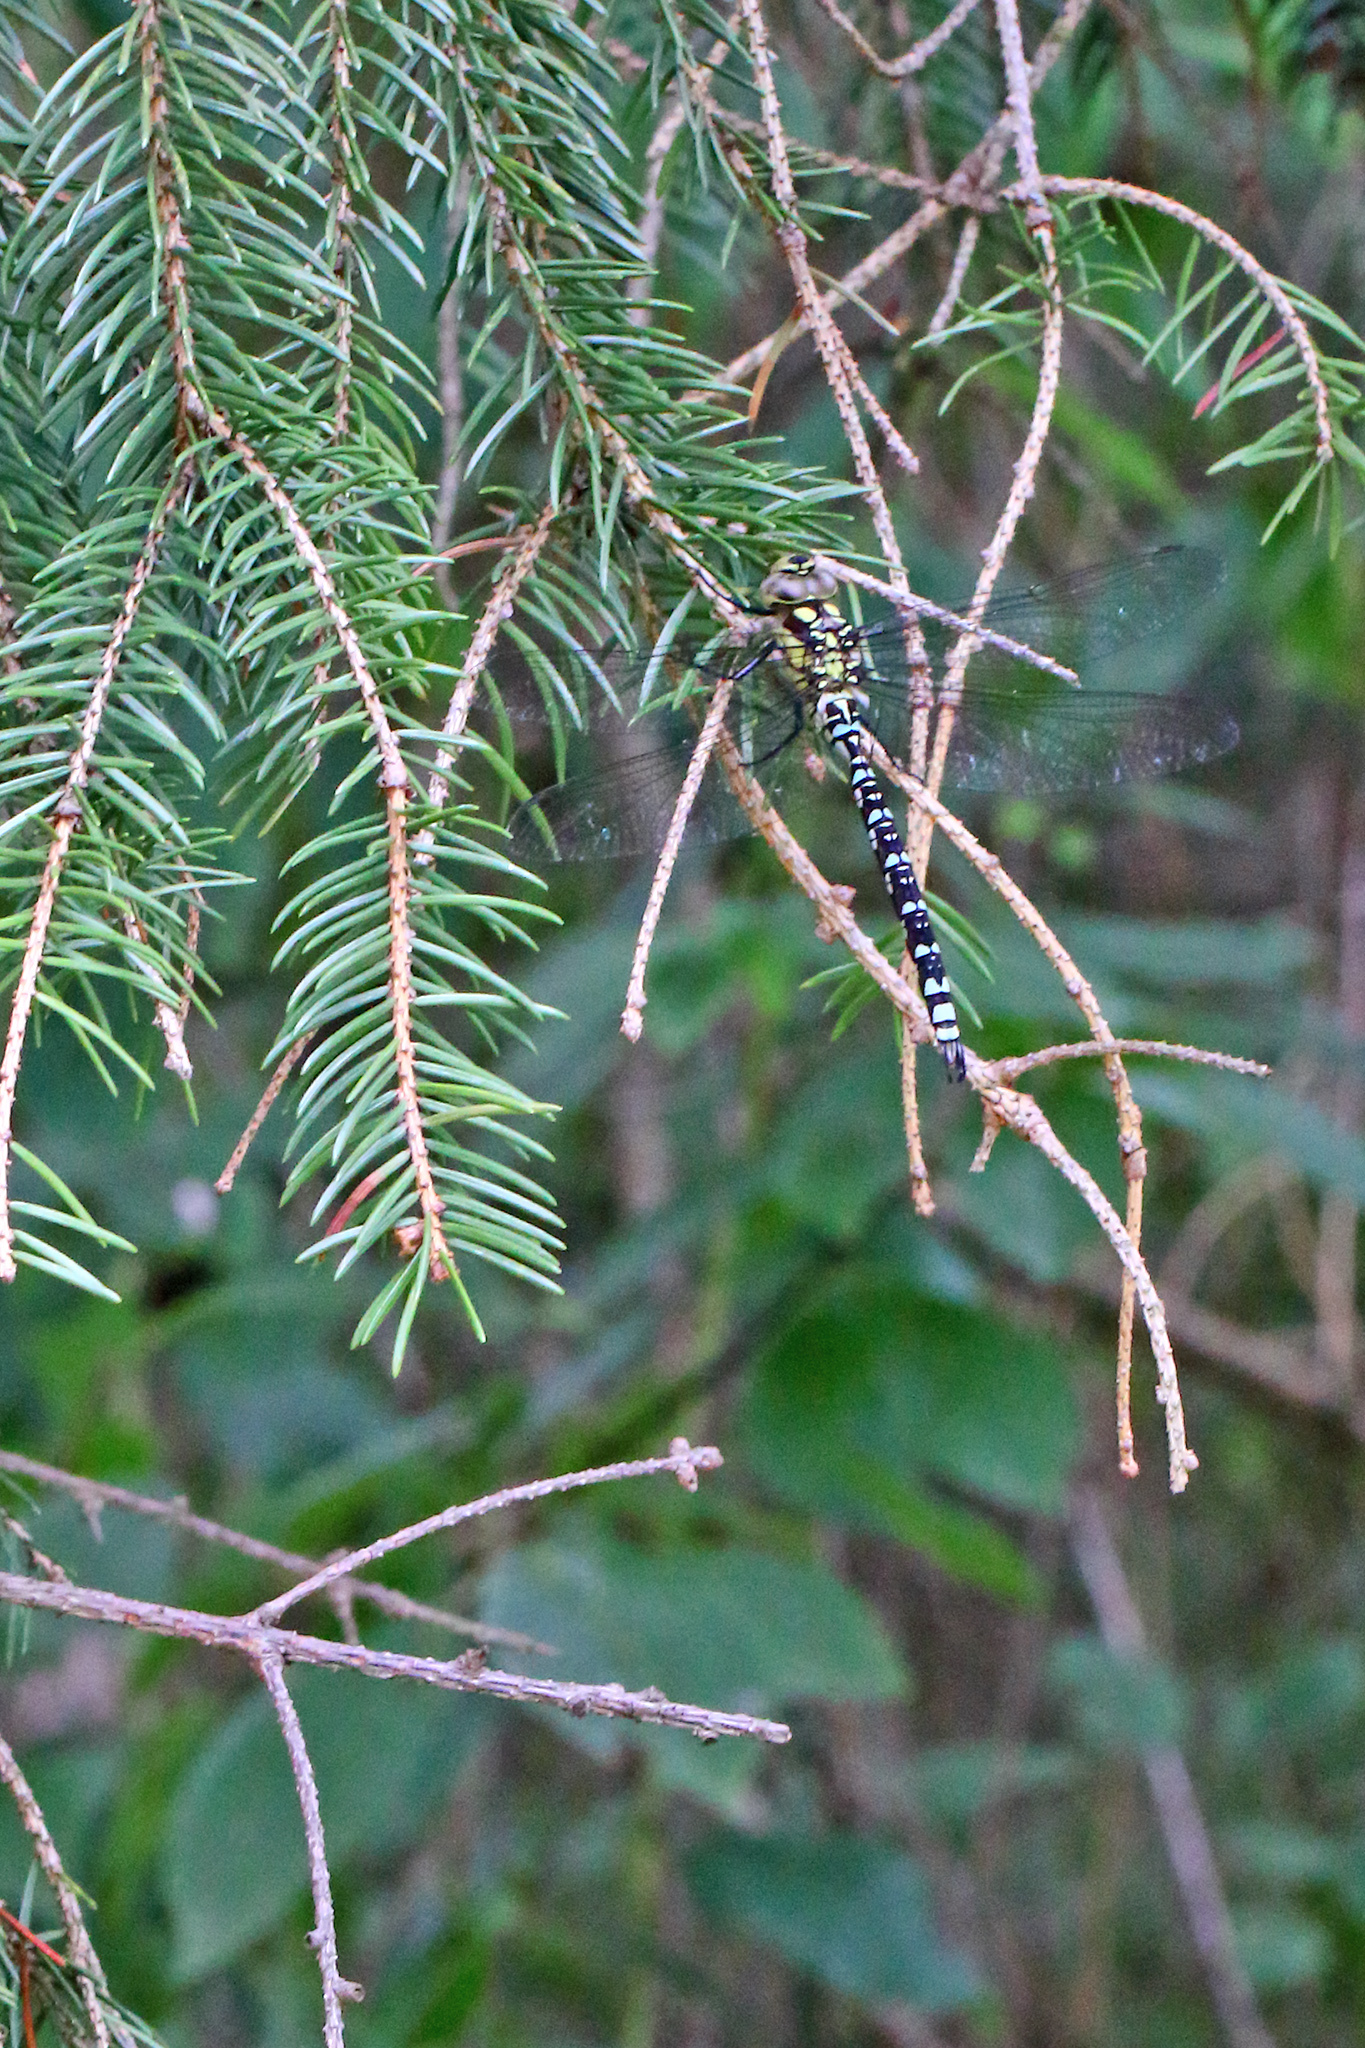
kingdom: Animalia
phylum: Arthropoda
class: Insecta
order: Odonata
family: Aeshnidae
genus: Aeshna
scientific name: Aeshna cyanea
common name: Southern hawker
